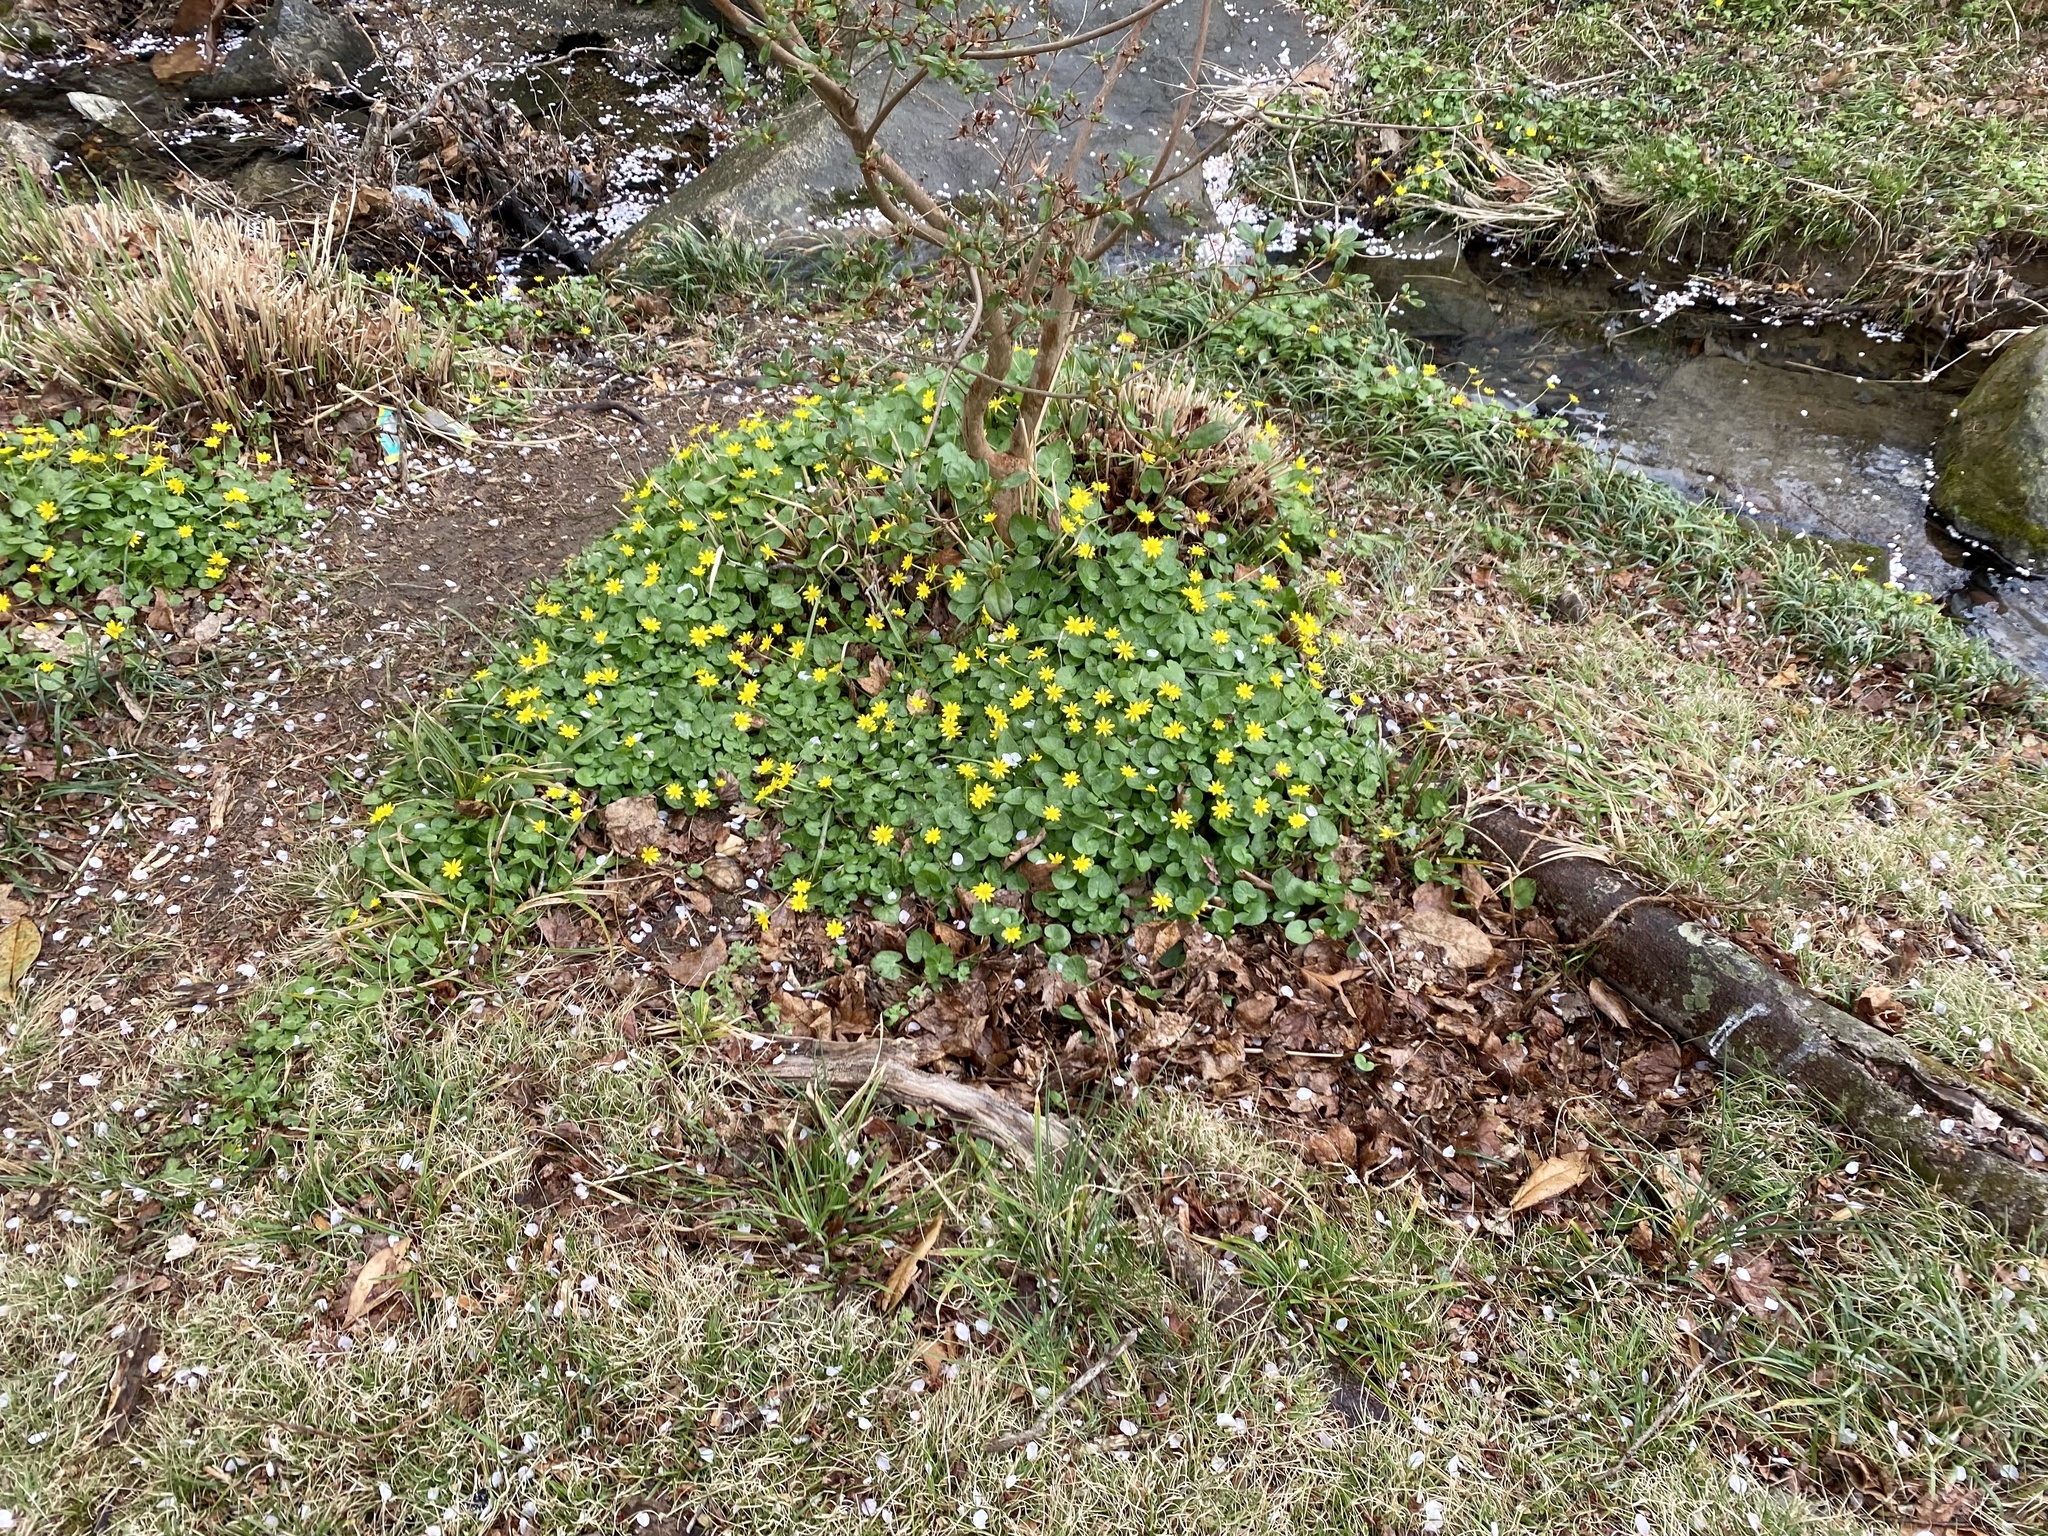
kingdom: Plantae
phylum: Tracheophyta
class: Magnoliopsida
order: Ranunculales
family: Ranunculaceae
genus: Ficaria
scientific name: Ficaria verna
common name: Lesser celandine
